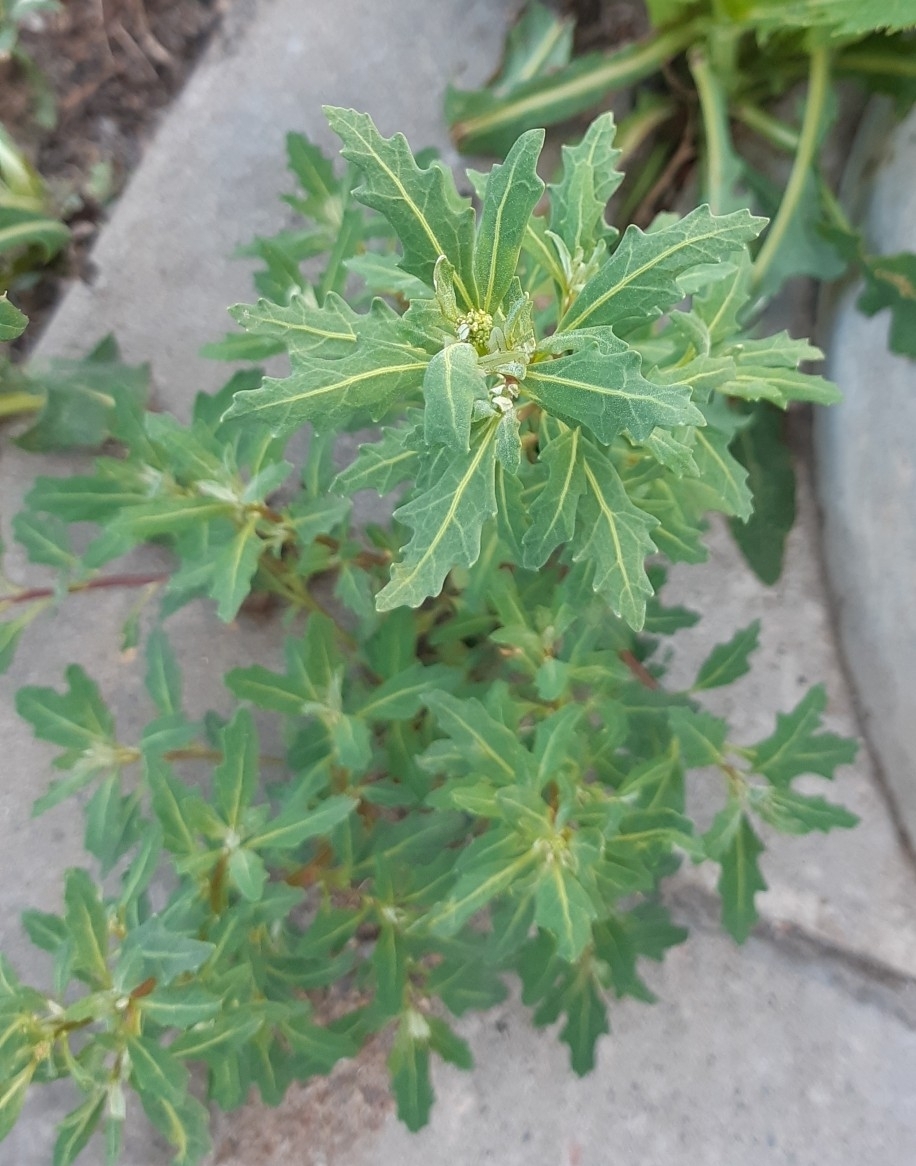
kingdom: Plantae
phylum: Tracheophyta
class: Magnoliopsida
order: Caryophyllales
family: Amaranthaceae
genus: Oxybasis
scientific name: Oxybasis glauca
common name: Glaucous goosefoot
